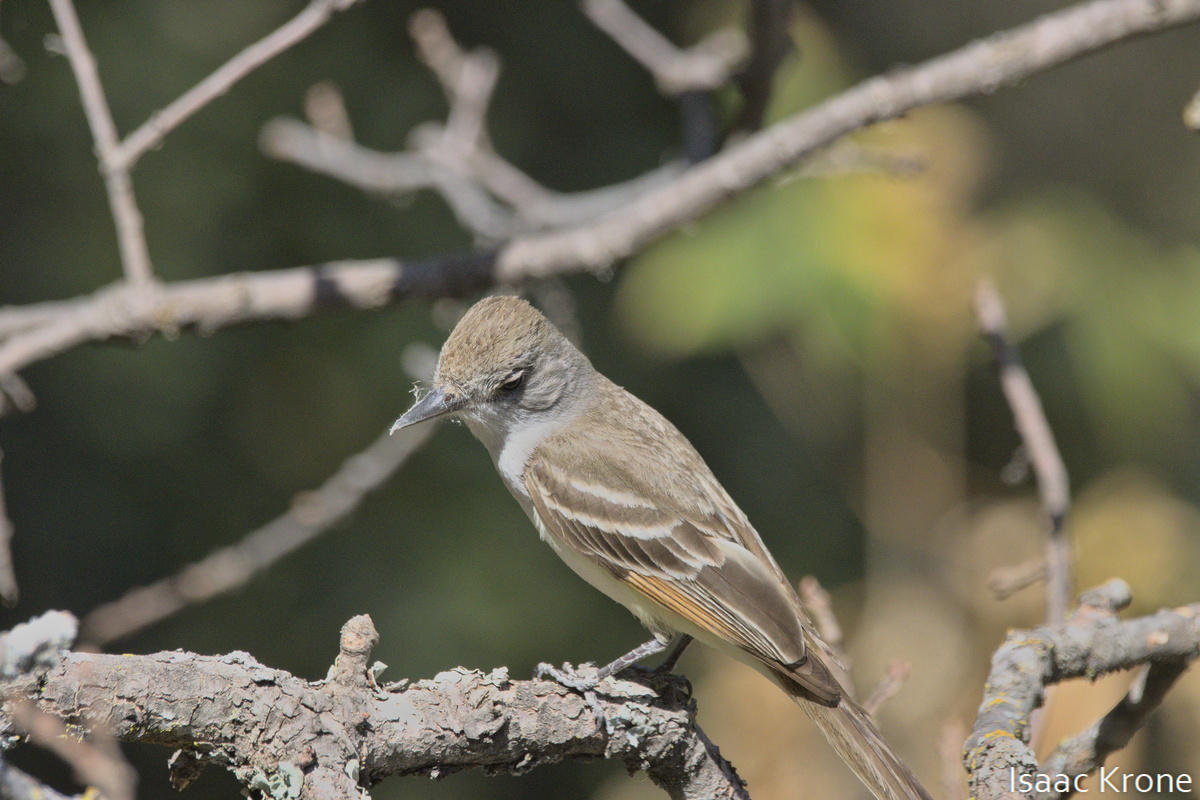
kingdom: Animalia
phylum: Chordata
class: Aves
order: Passeriformes
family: Tyrannidae
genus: Myiarchus
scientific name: Myiarchus cinerascens
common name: Ash-throated flycatcher
